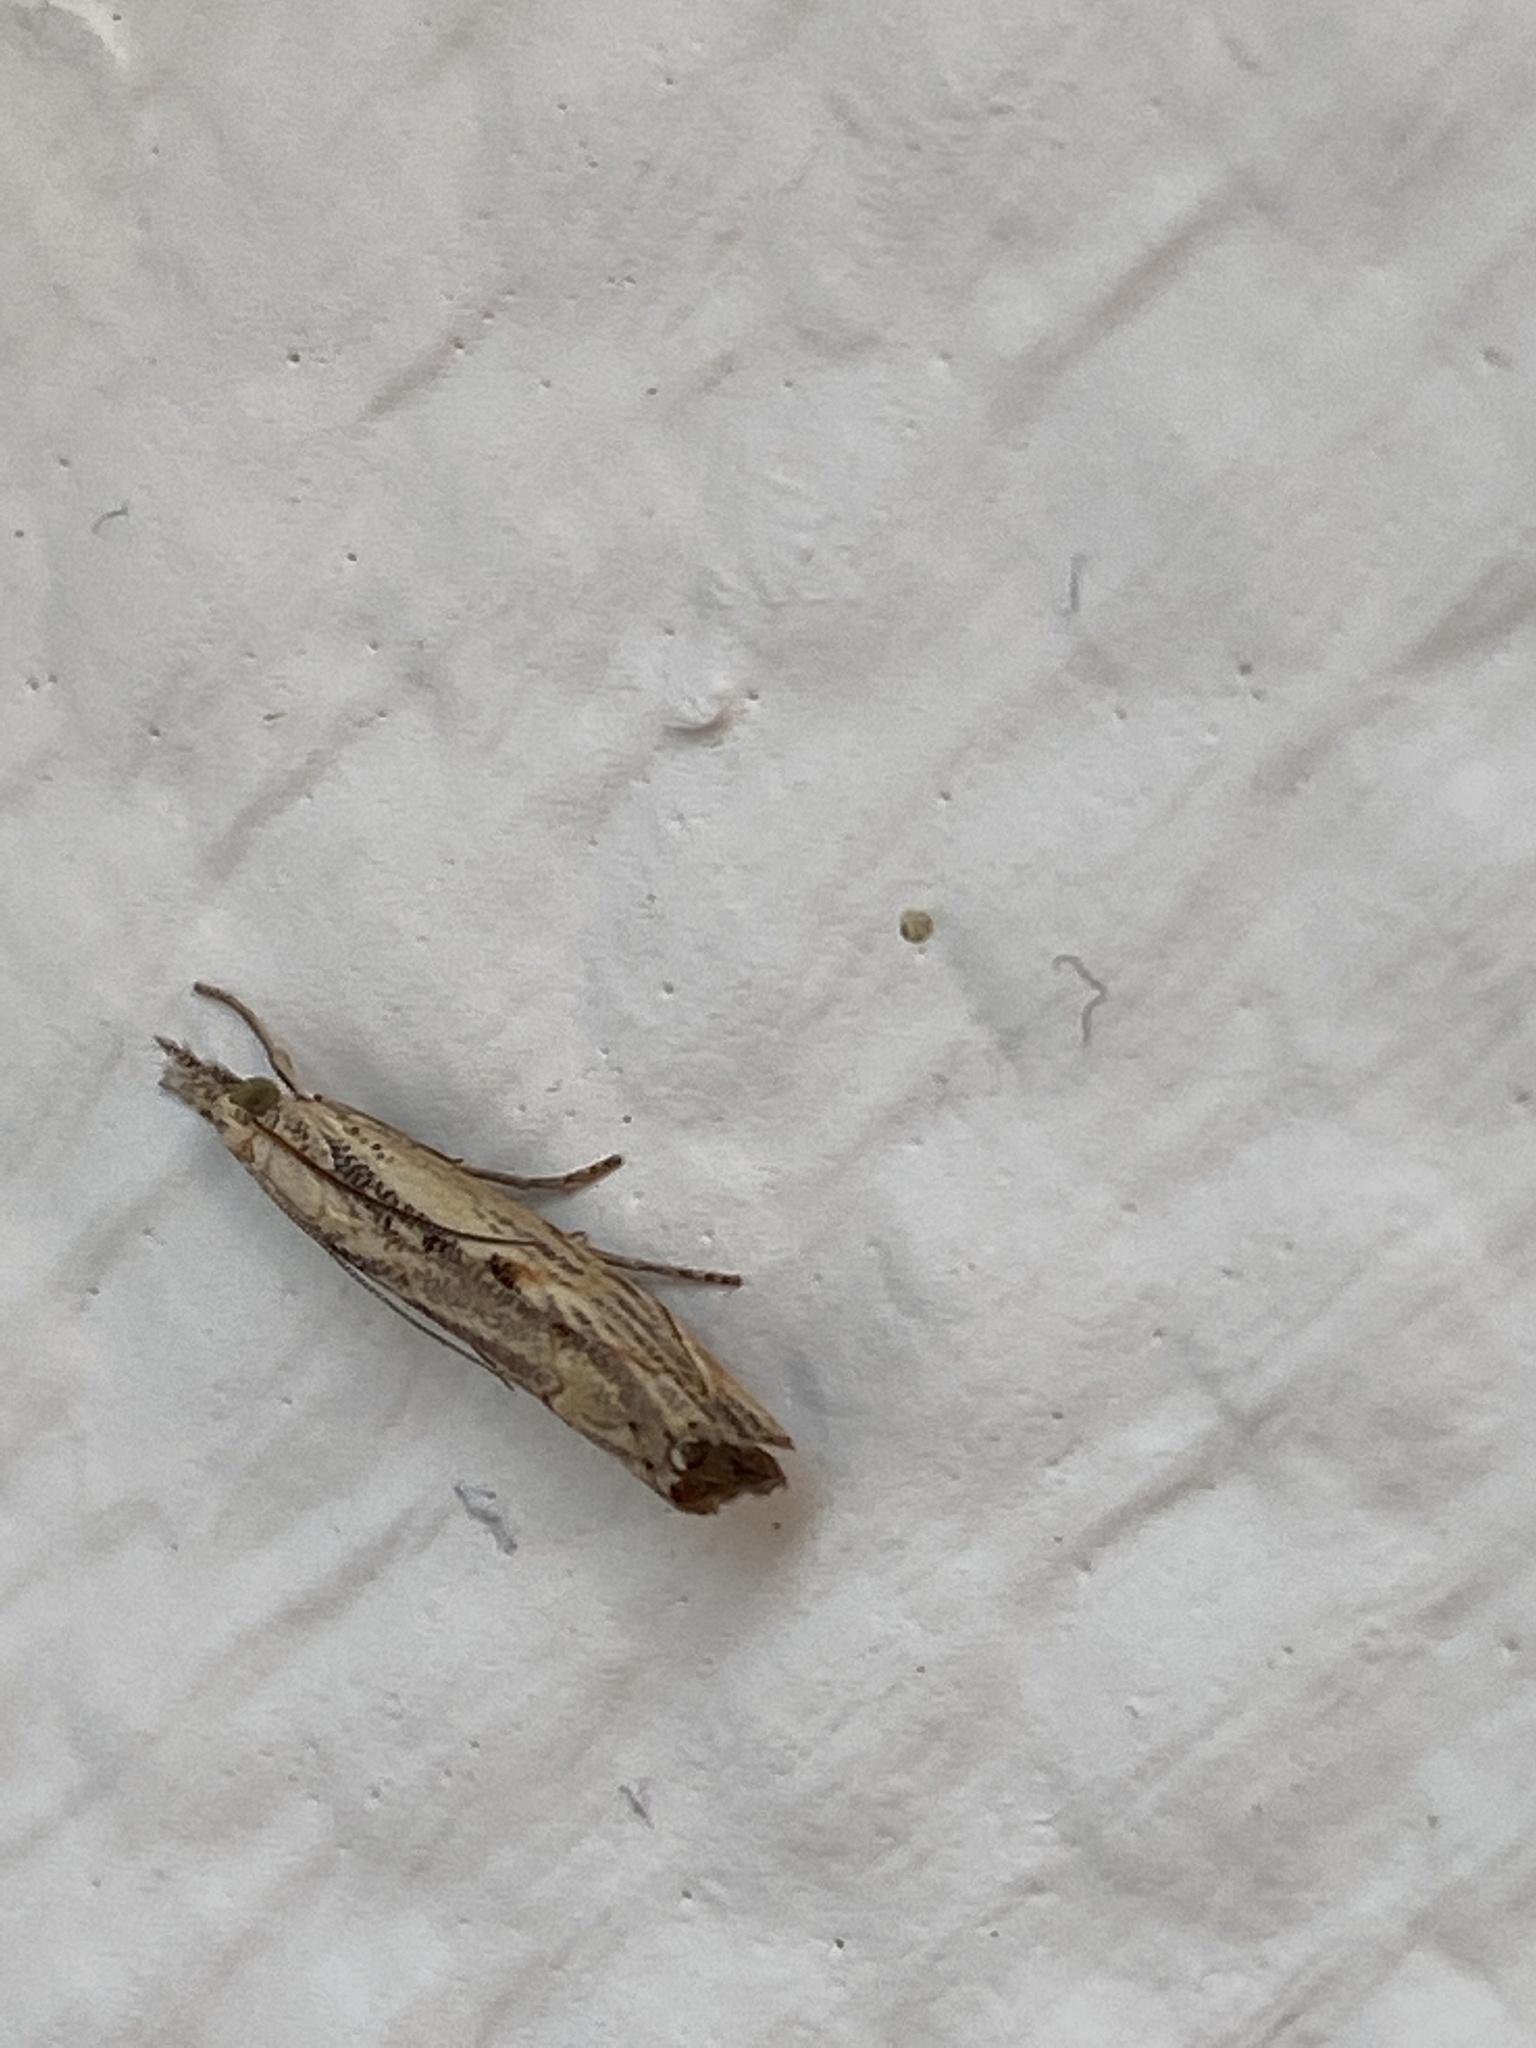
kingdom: Animalia
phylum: Arthropoda
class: Insecta
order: Lepidoptera
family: Crambidae
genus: Agriphila
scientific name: Agriphila geniculea
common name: Elbow-stripe grass-veneer
